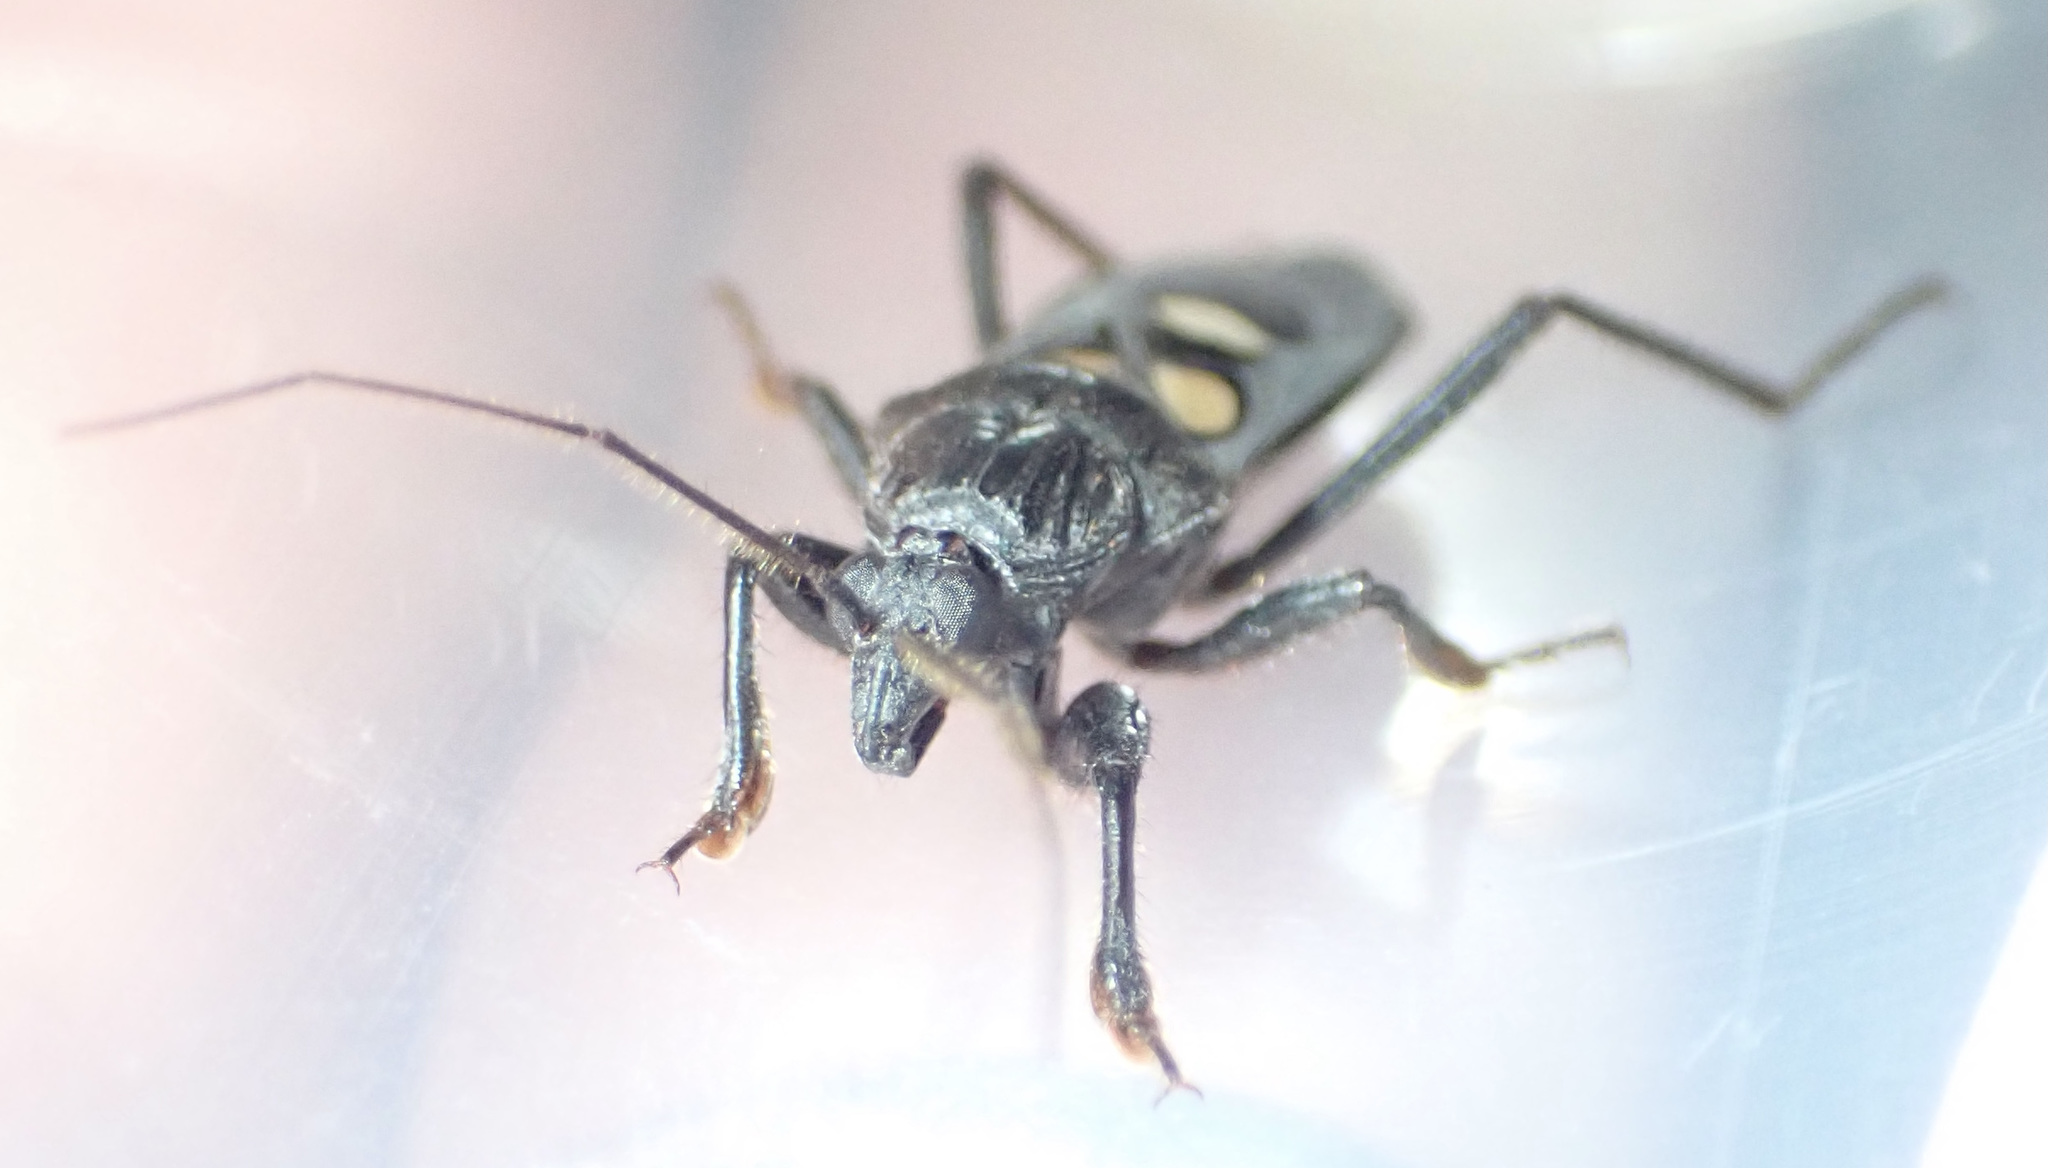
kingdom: Animalia
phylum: Arthropoda
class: Insecta
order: Hemiptera
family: Reduviidae
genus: Ectomocoris
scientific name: Ectomocoris quadrimaculatus
